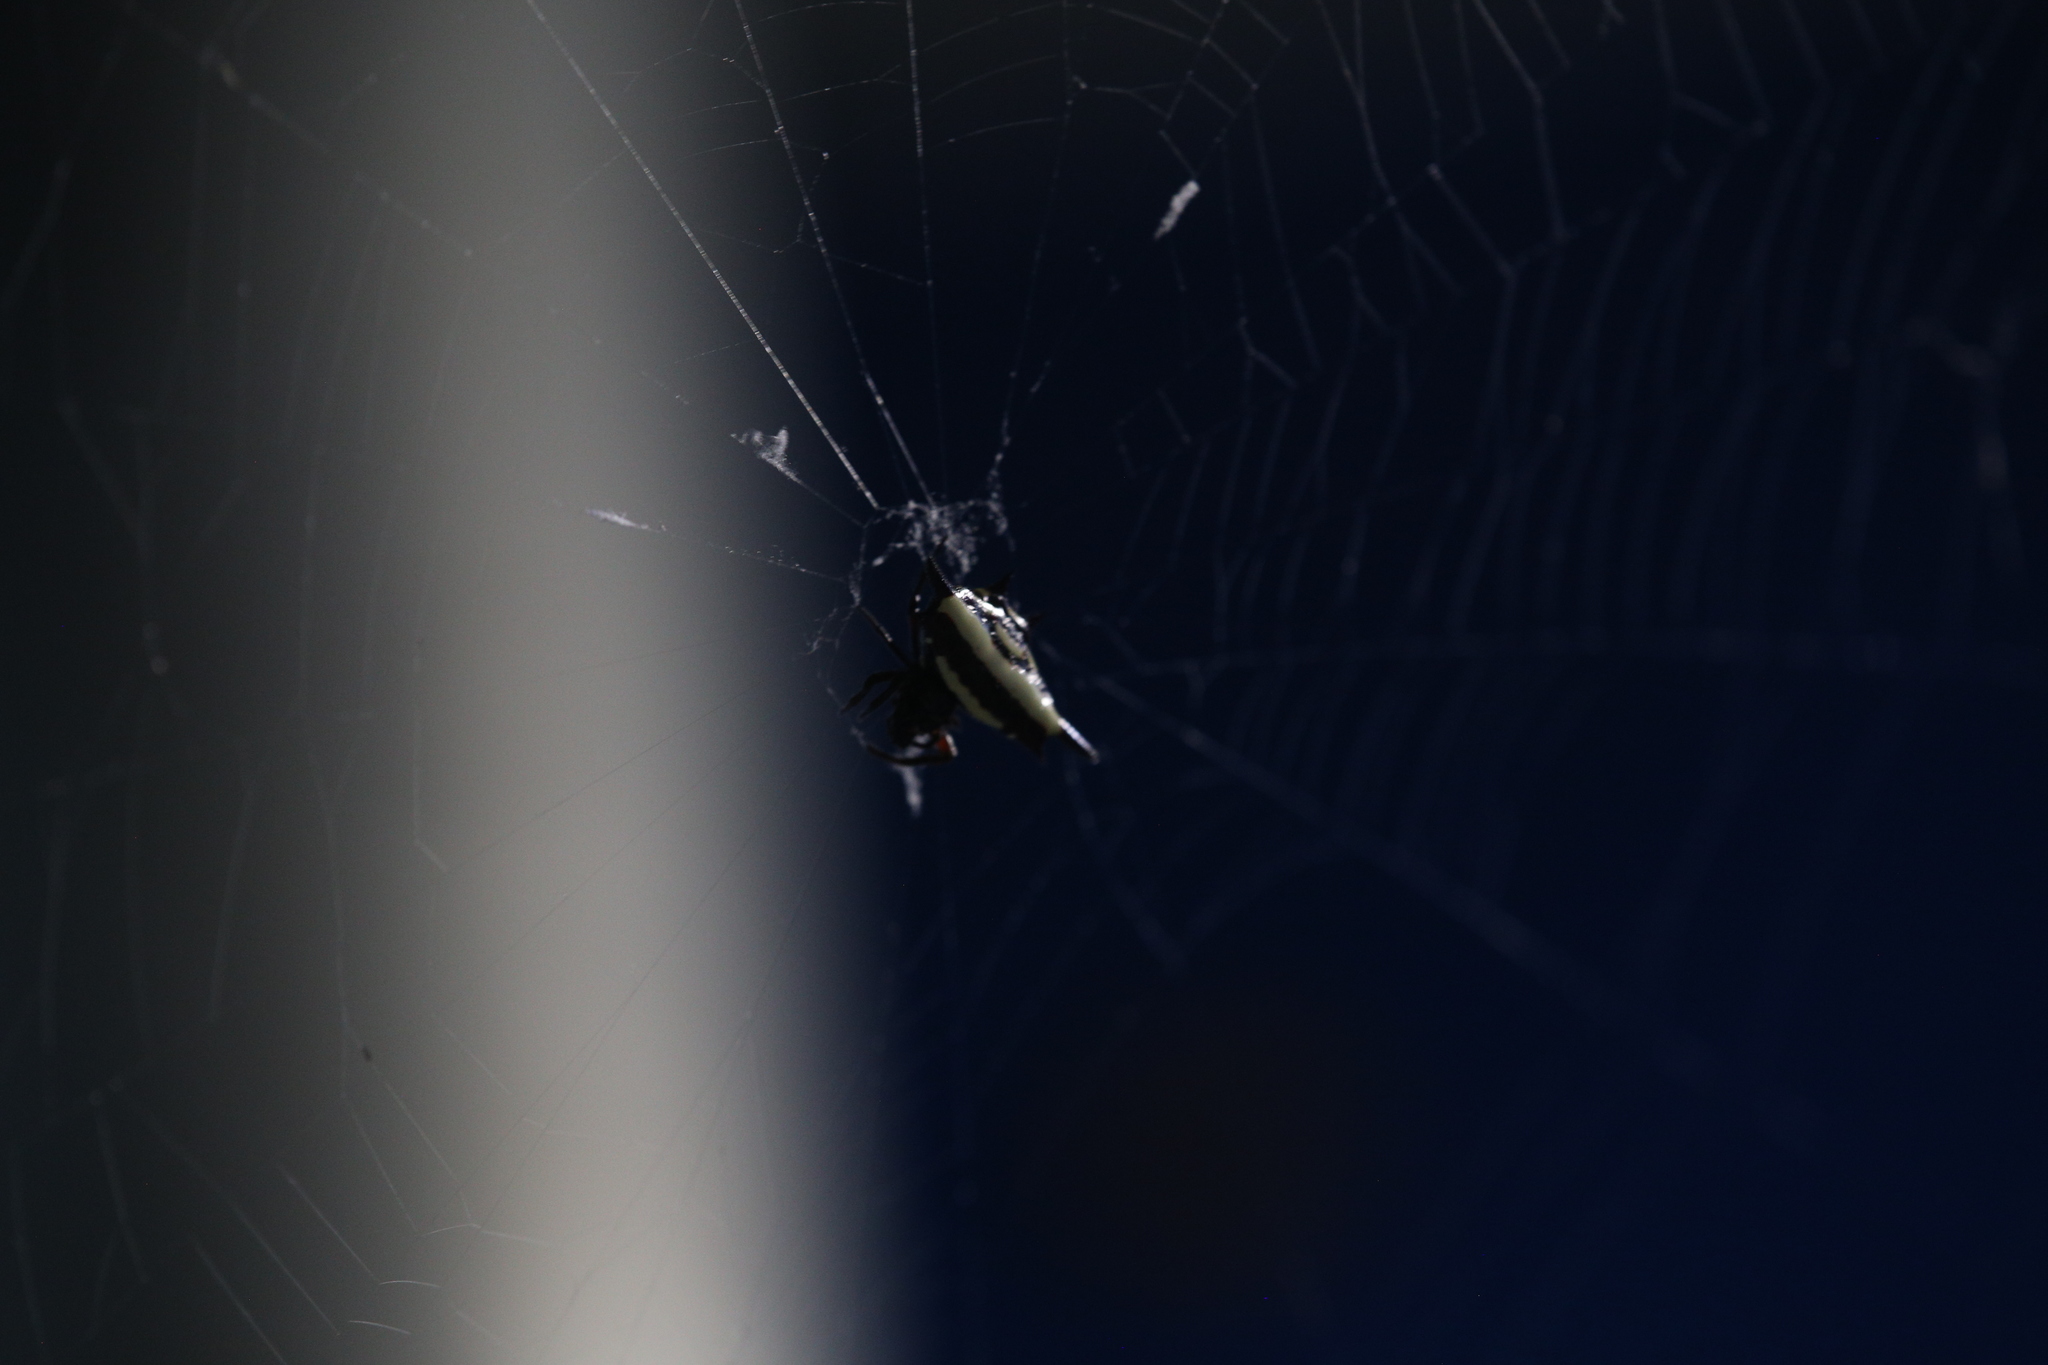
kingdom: Animalia
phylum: Arthropoda
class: Arachnida
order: Araneae
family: Araneidae
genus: Gasteracantha
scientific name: Gasteracantha fornicata
